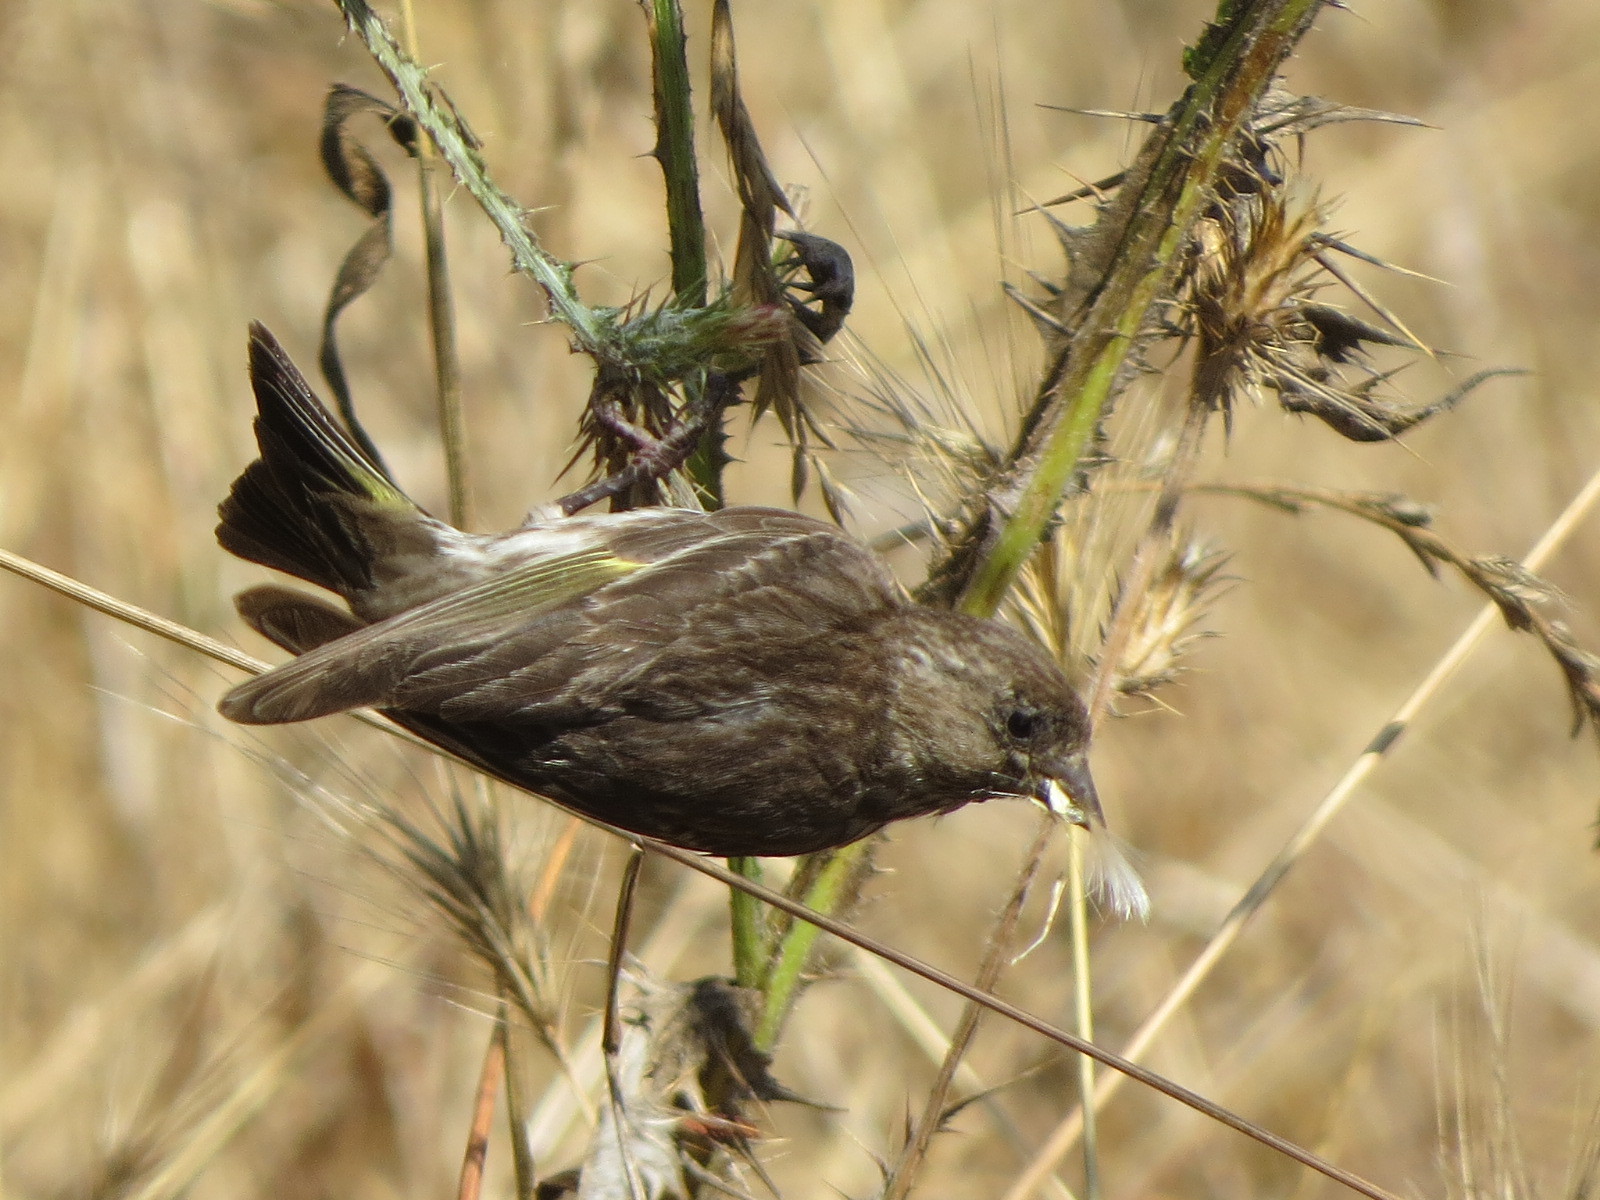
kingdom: Animalia
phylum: Chordata
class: Aves
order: Passeriformes
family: Fringillidae
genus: Spinus
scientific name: Spinus pinus
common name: Pine siskin
